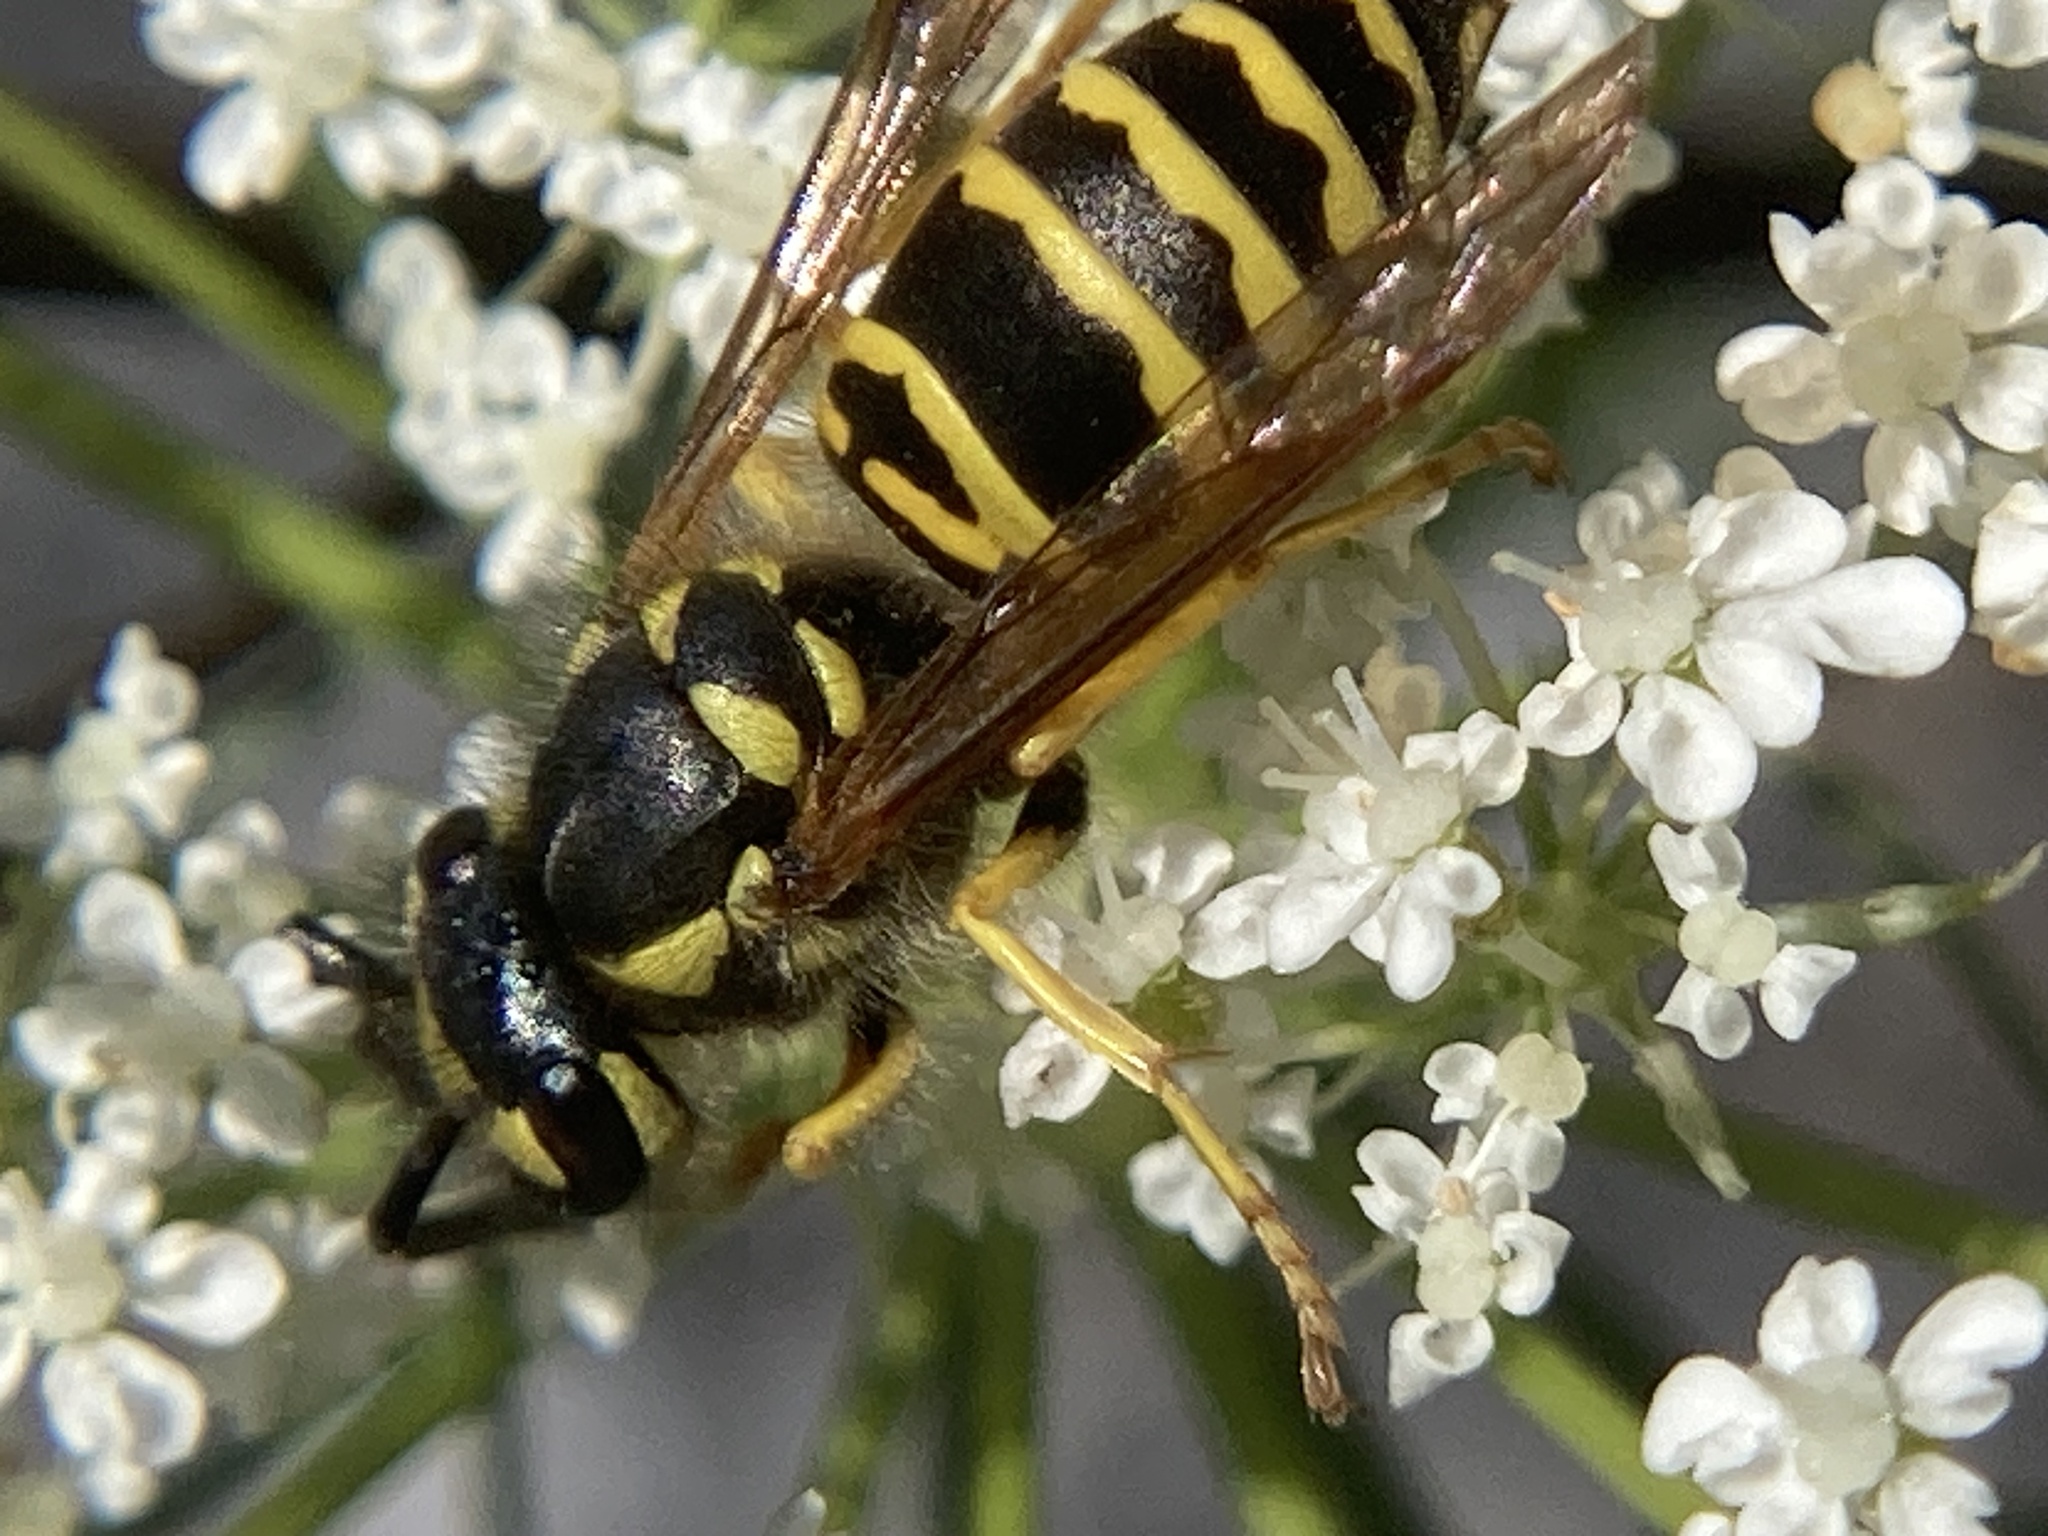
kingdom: Animalia
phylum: Arthropoda
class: Insecta
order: Hymenoptera
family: Vespidae
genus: Vespula
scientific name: Vespula maculifrons
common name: Eastern yellowjacket
